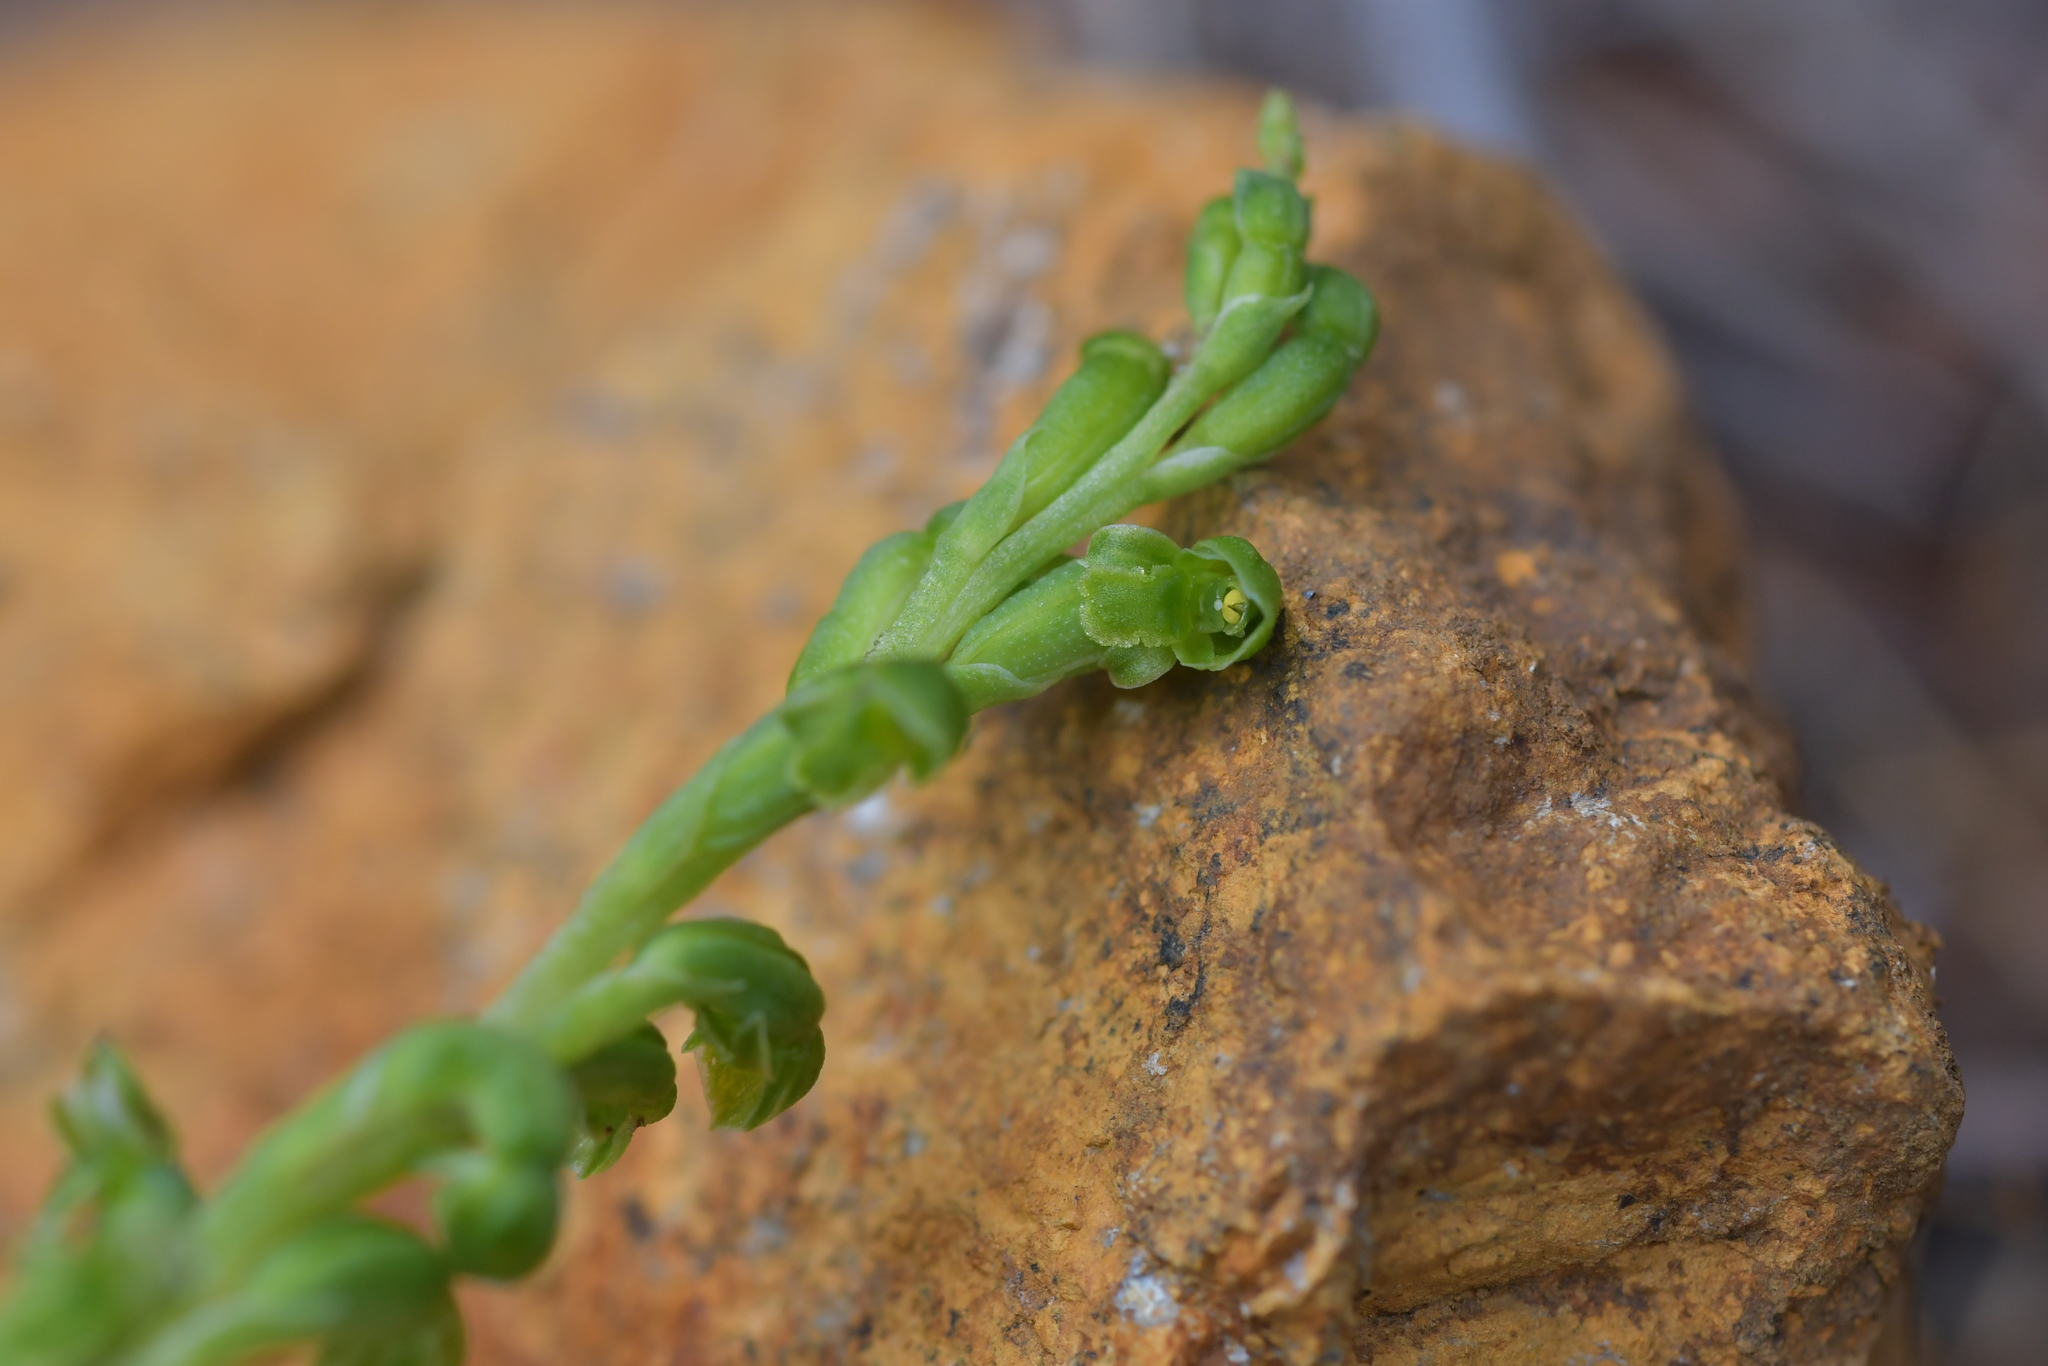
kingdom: Plantae
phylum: Tracheophyta
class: Liliopsida
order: Asparagales
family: Orchidaceae
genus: Microtis
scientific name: Microtis oligantha
